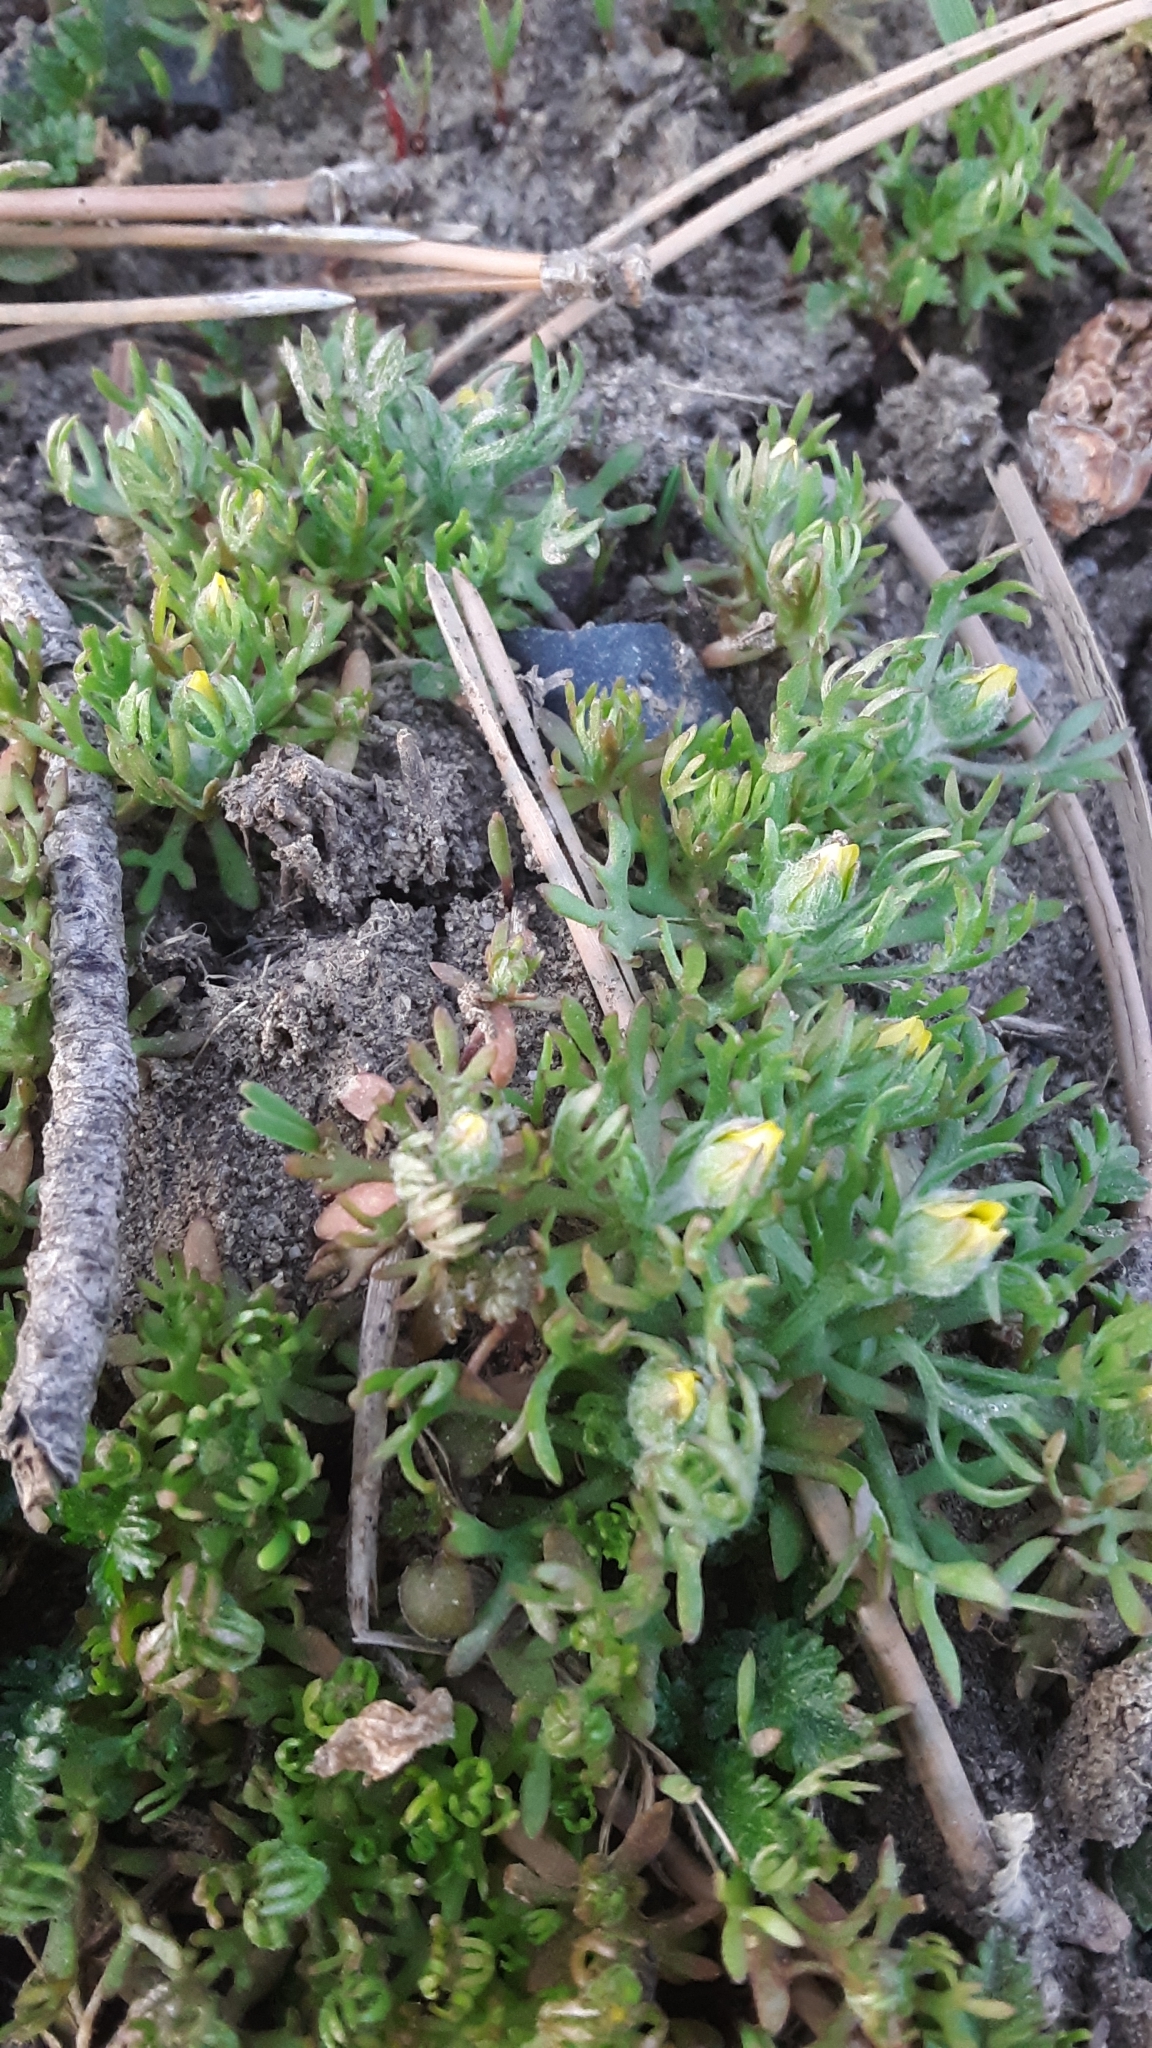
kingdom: Plantae
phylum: Tracheophyta
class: Magnoliopsida
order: Ranunculales
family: Ranunculaceae
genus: Ceratocephala
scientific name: Ceratocephala orthoceras
